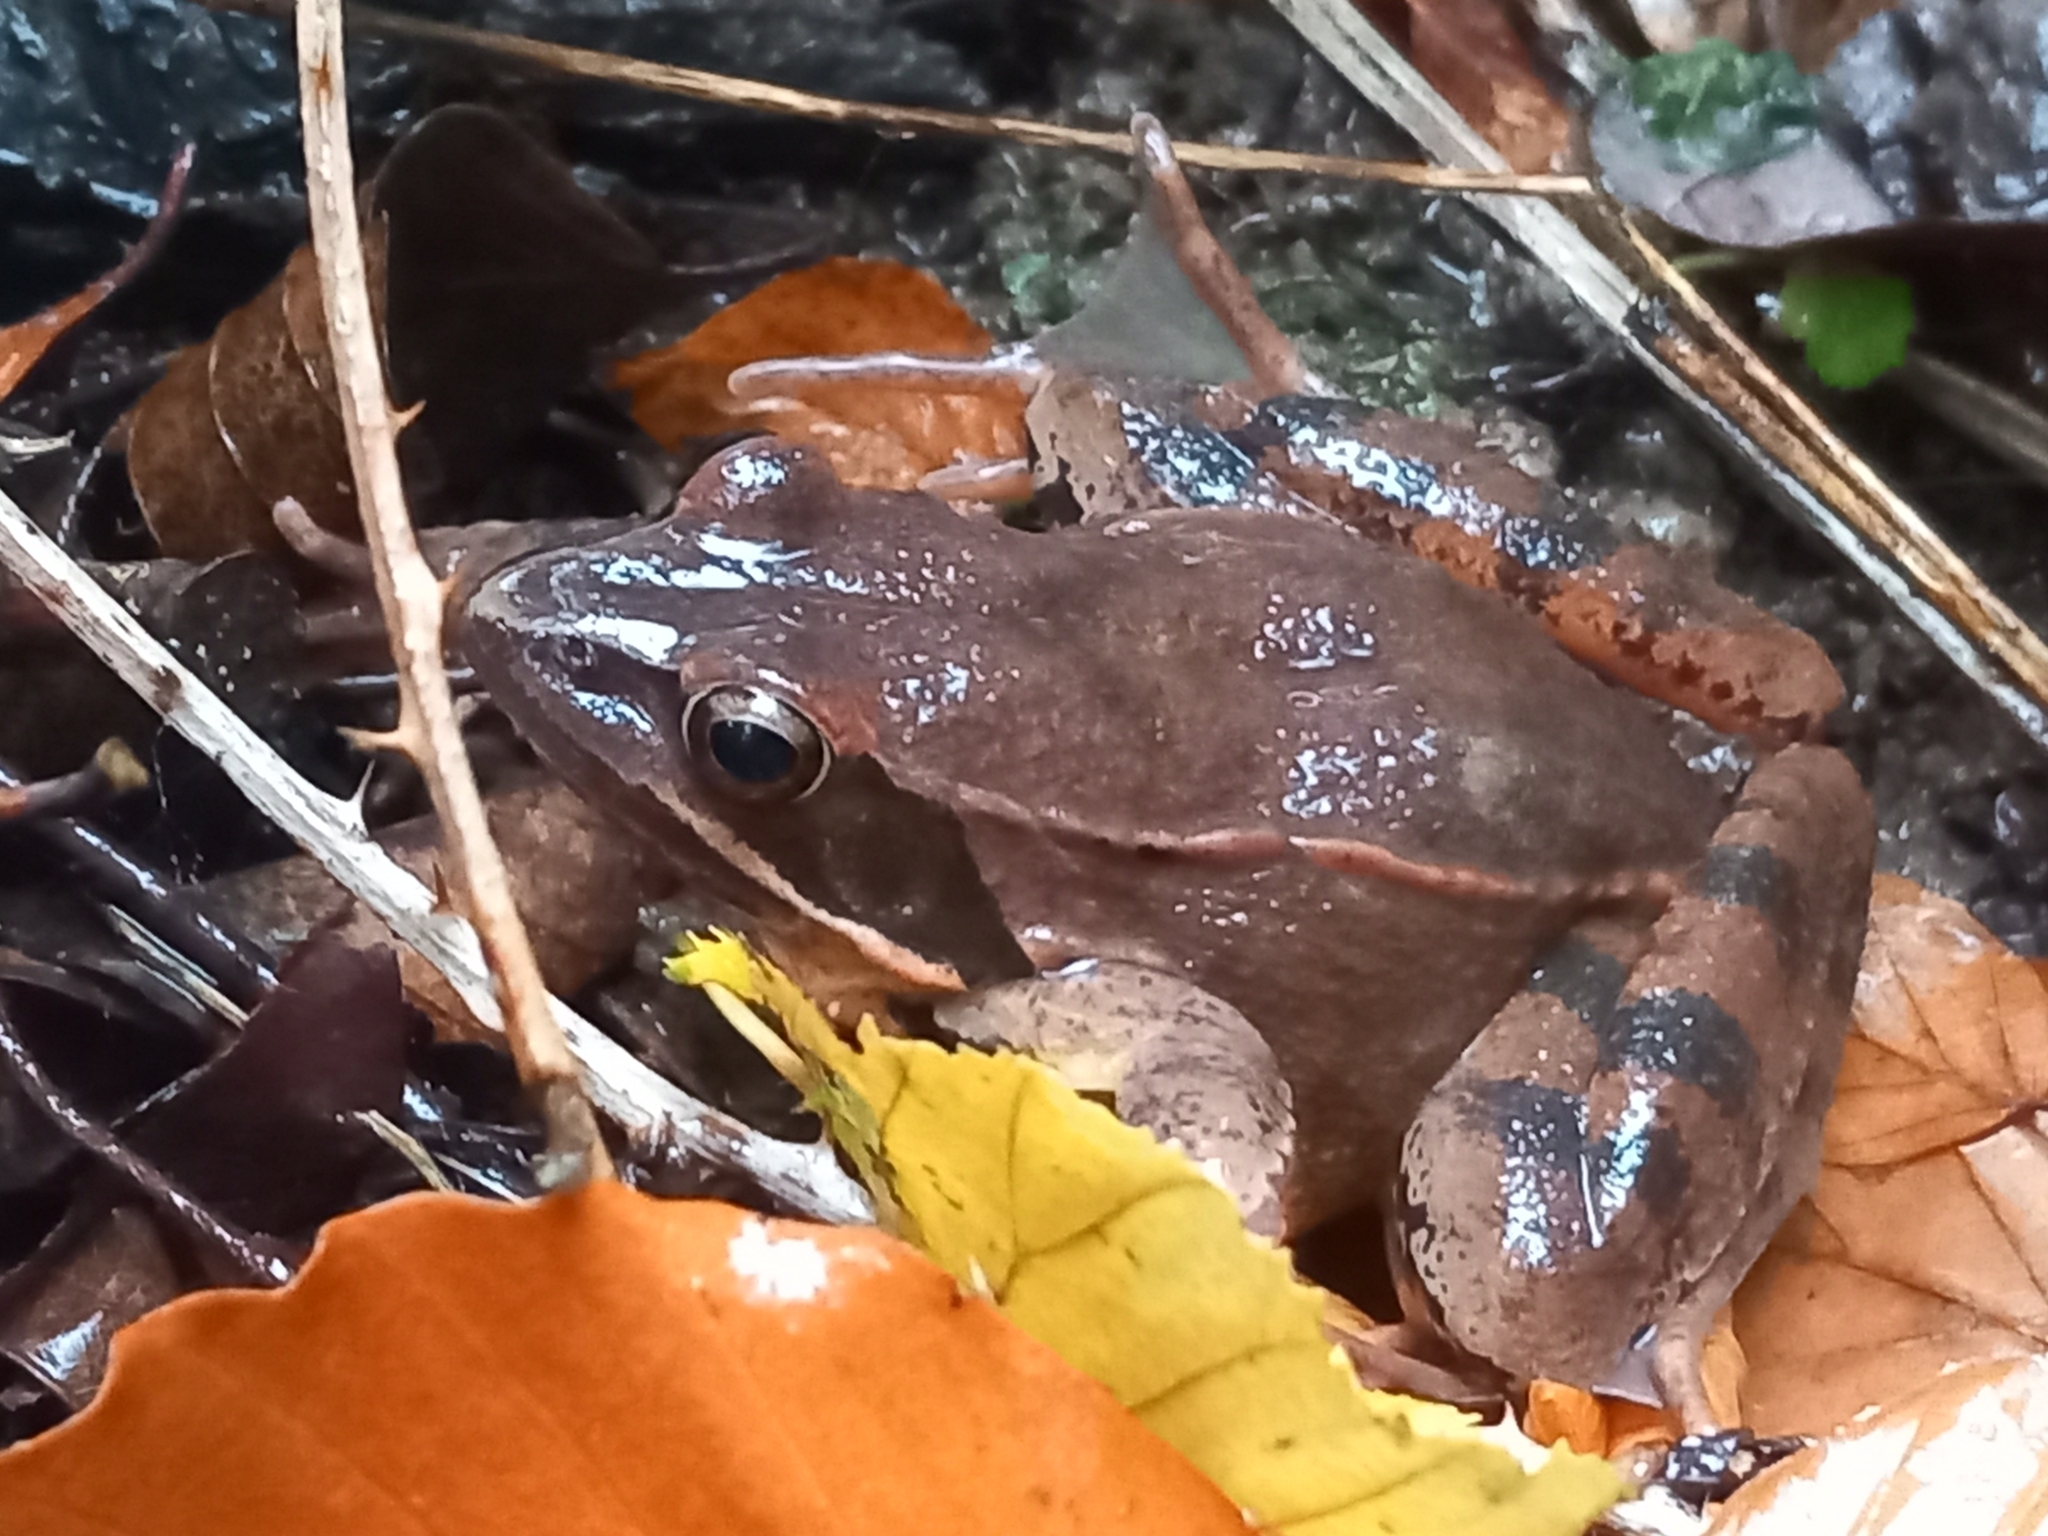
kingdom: Animalia
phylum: Chordata
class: Amphibia
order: Anura
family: Ranidae
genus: Rana
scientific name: Rana dalmatina
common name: Agile frog
